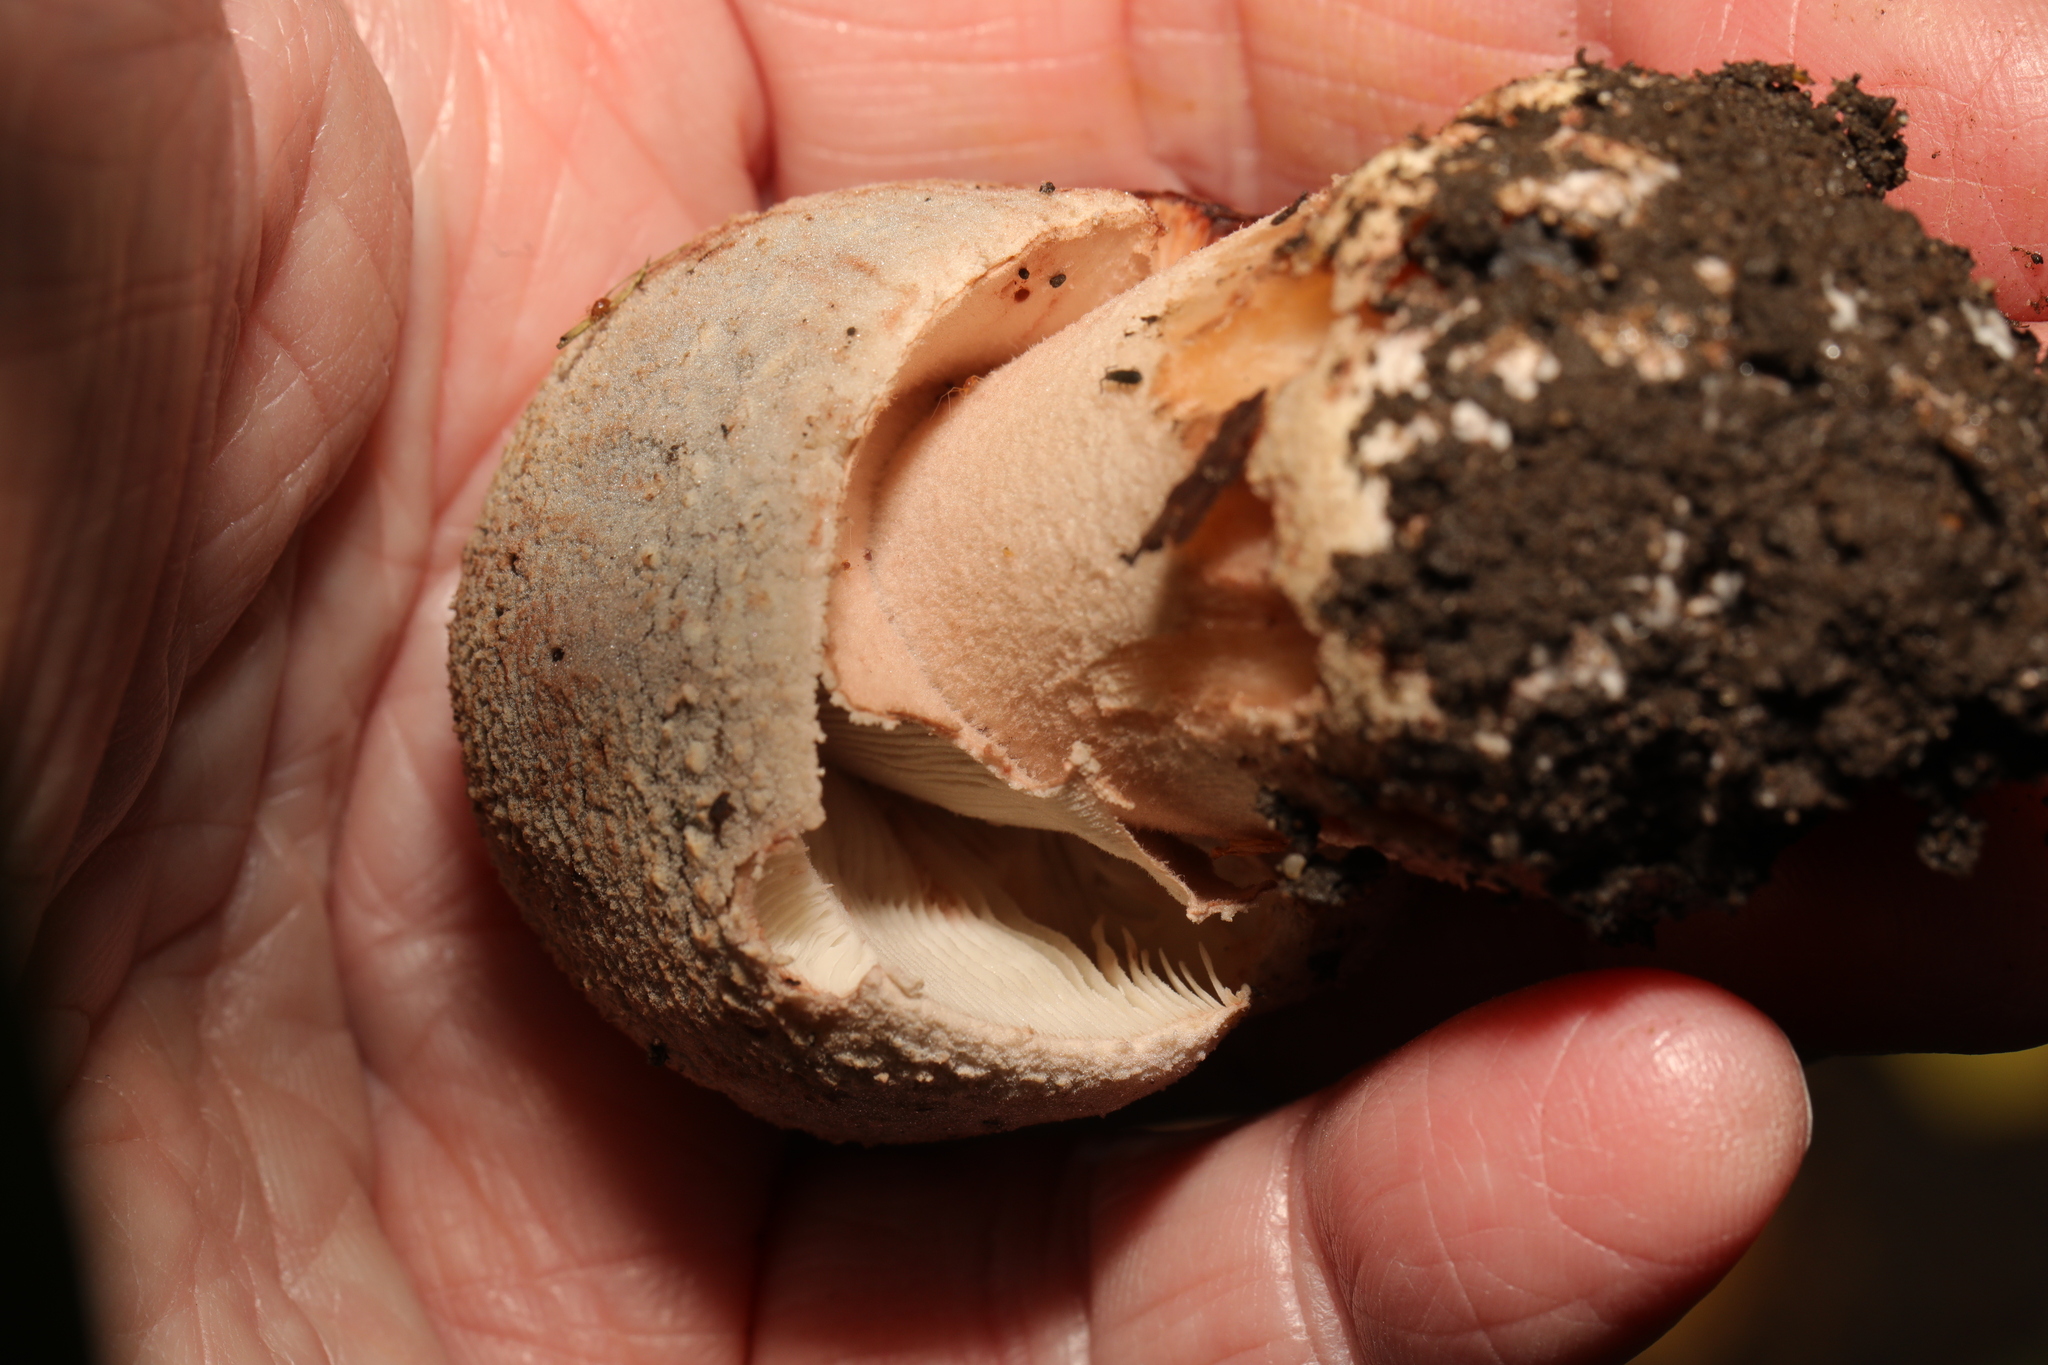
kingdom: Fungi
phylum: Basidiomycota
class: Agaricomycetes
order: Agaricales
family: Amanitaceae
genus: Amanita
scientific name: Amanita rubescens
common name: Blusher
